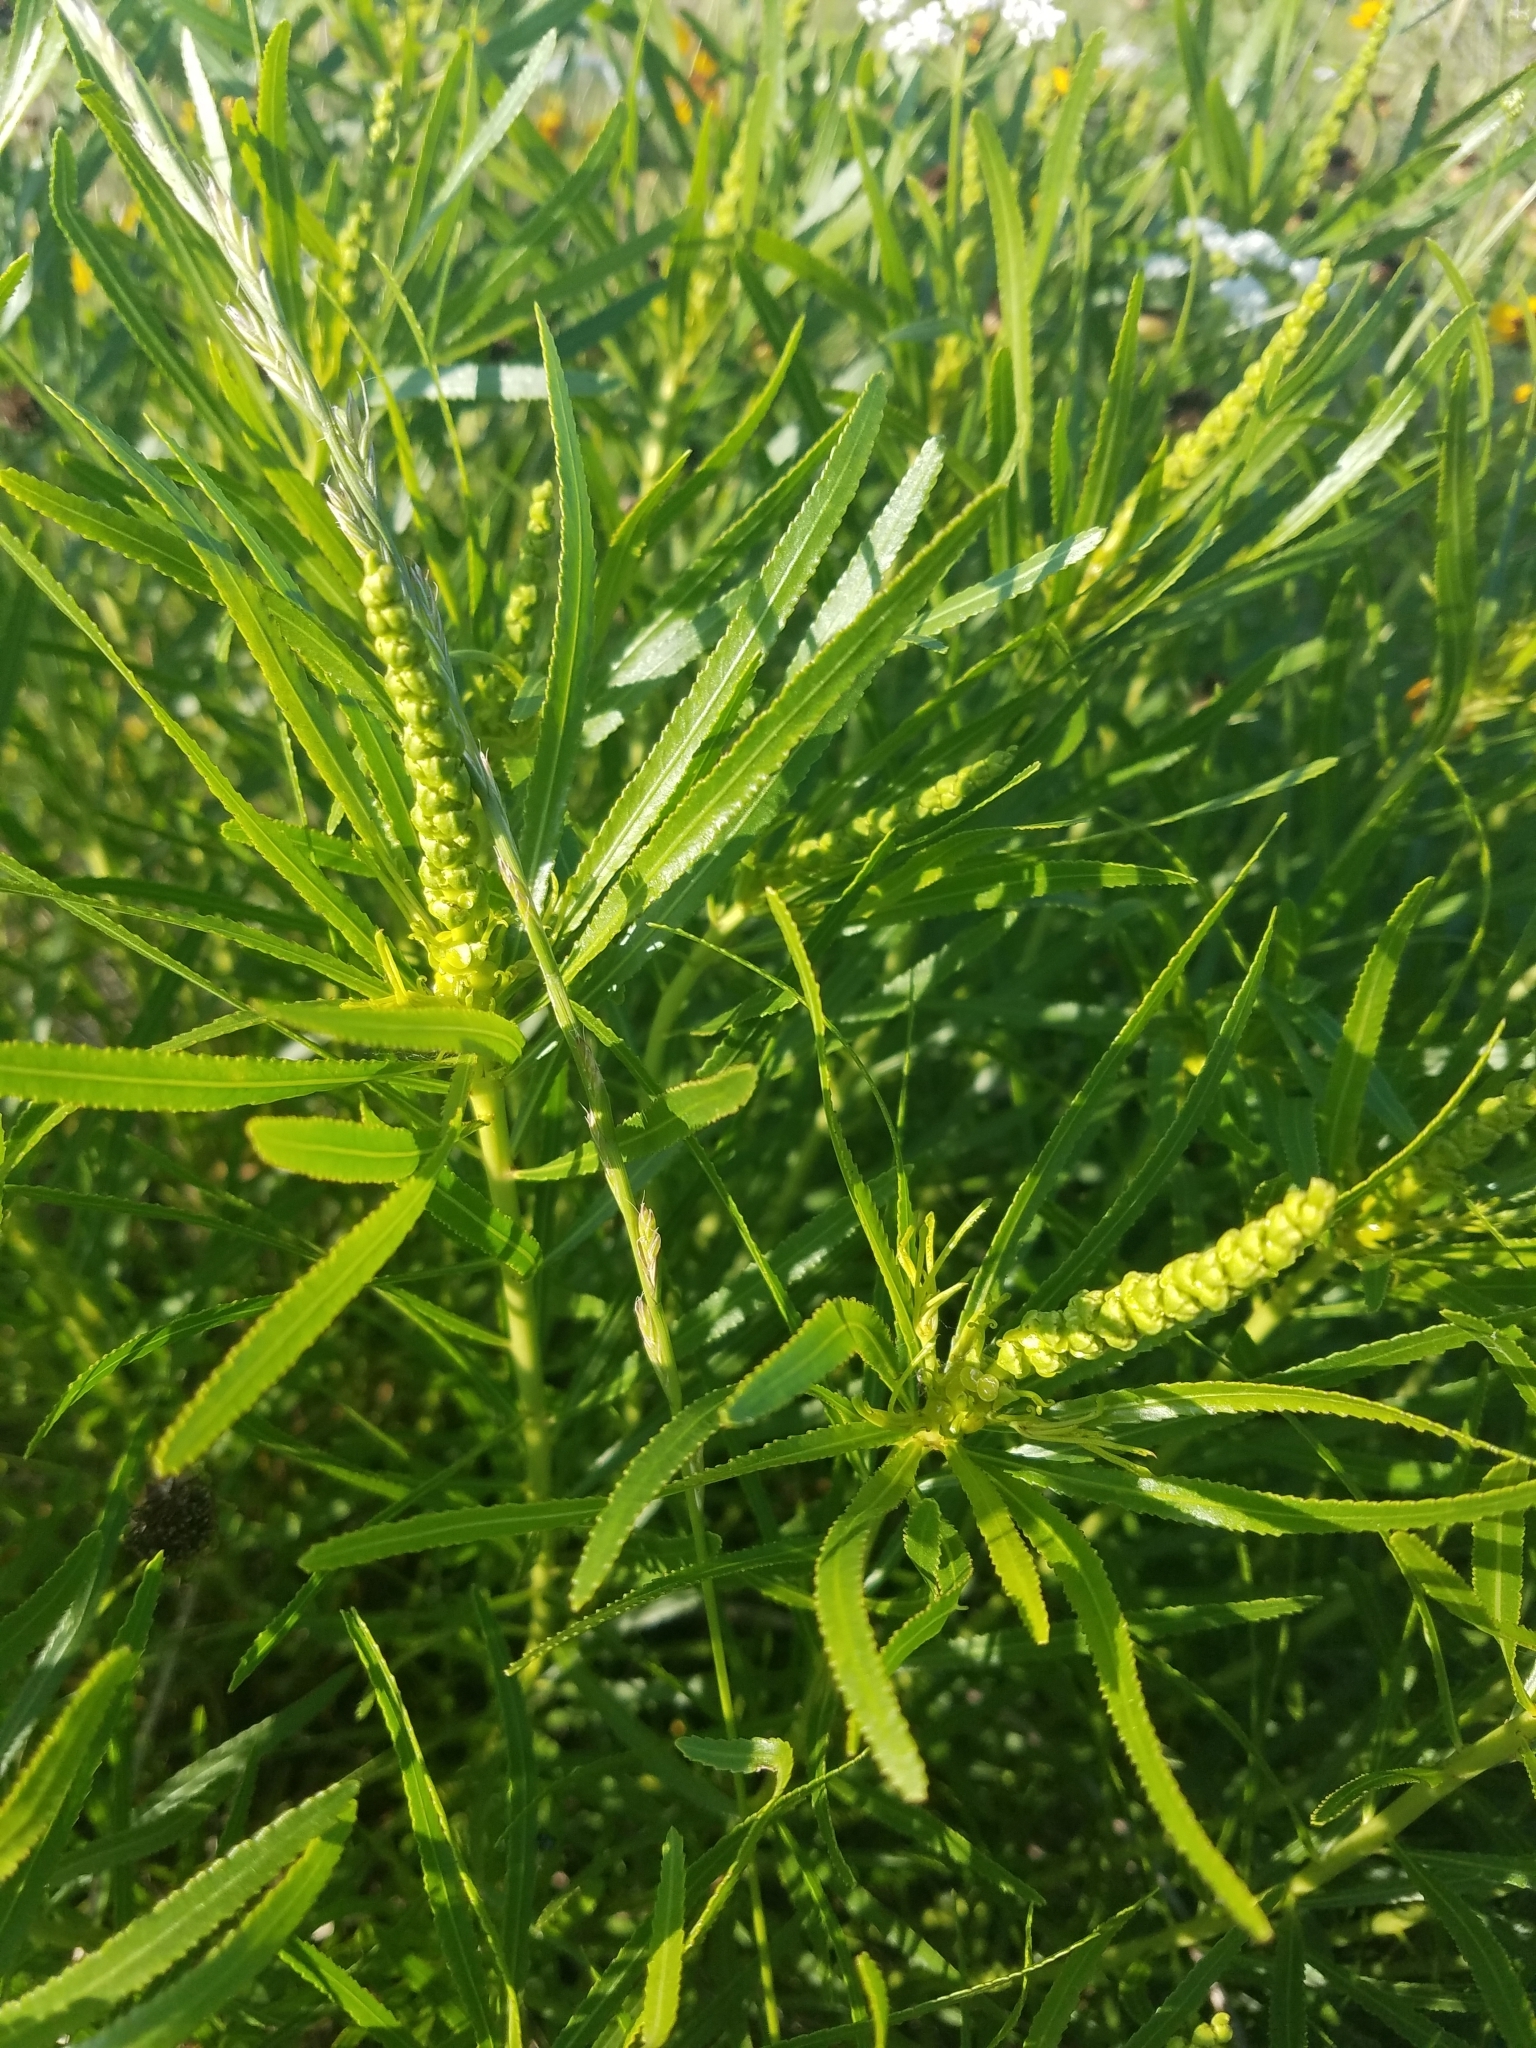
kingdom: Plantae
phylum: Tracheophyta
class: Magnoliopsida
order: Malpighiales
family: Euphorbiaceae
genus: Stillingia
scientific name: Stillingia texana
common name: Texas stillingia
